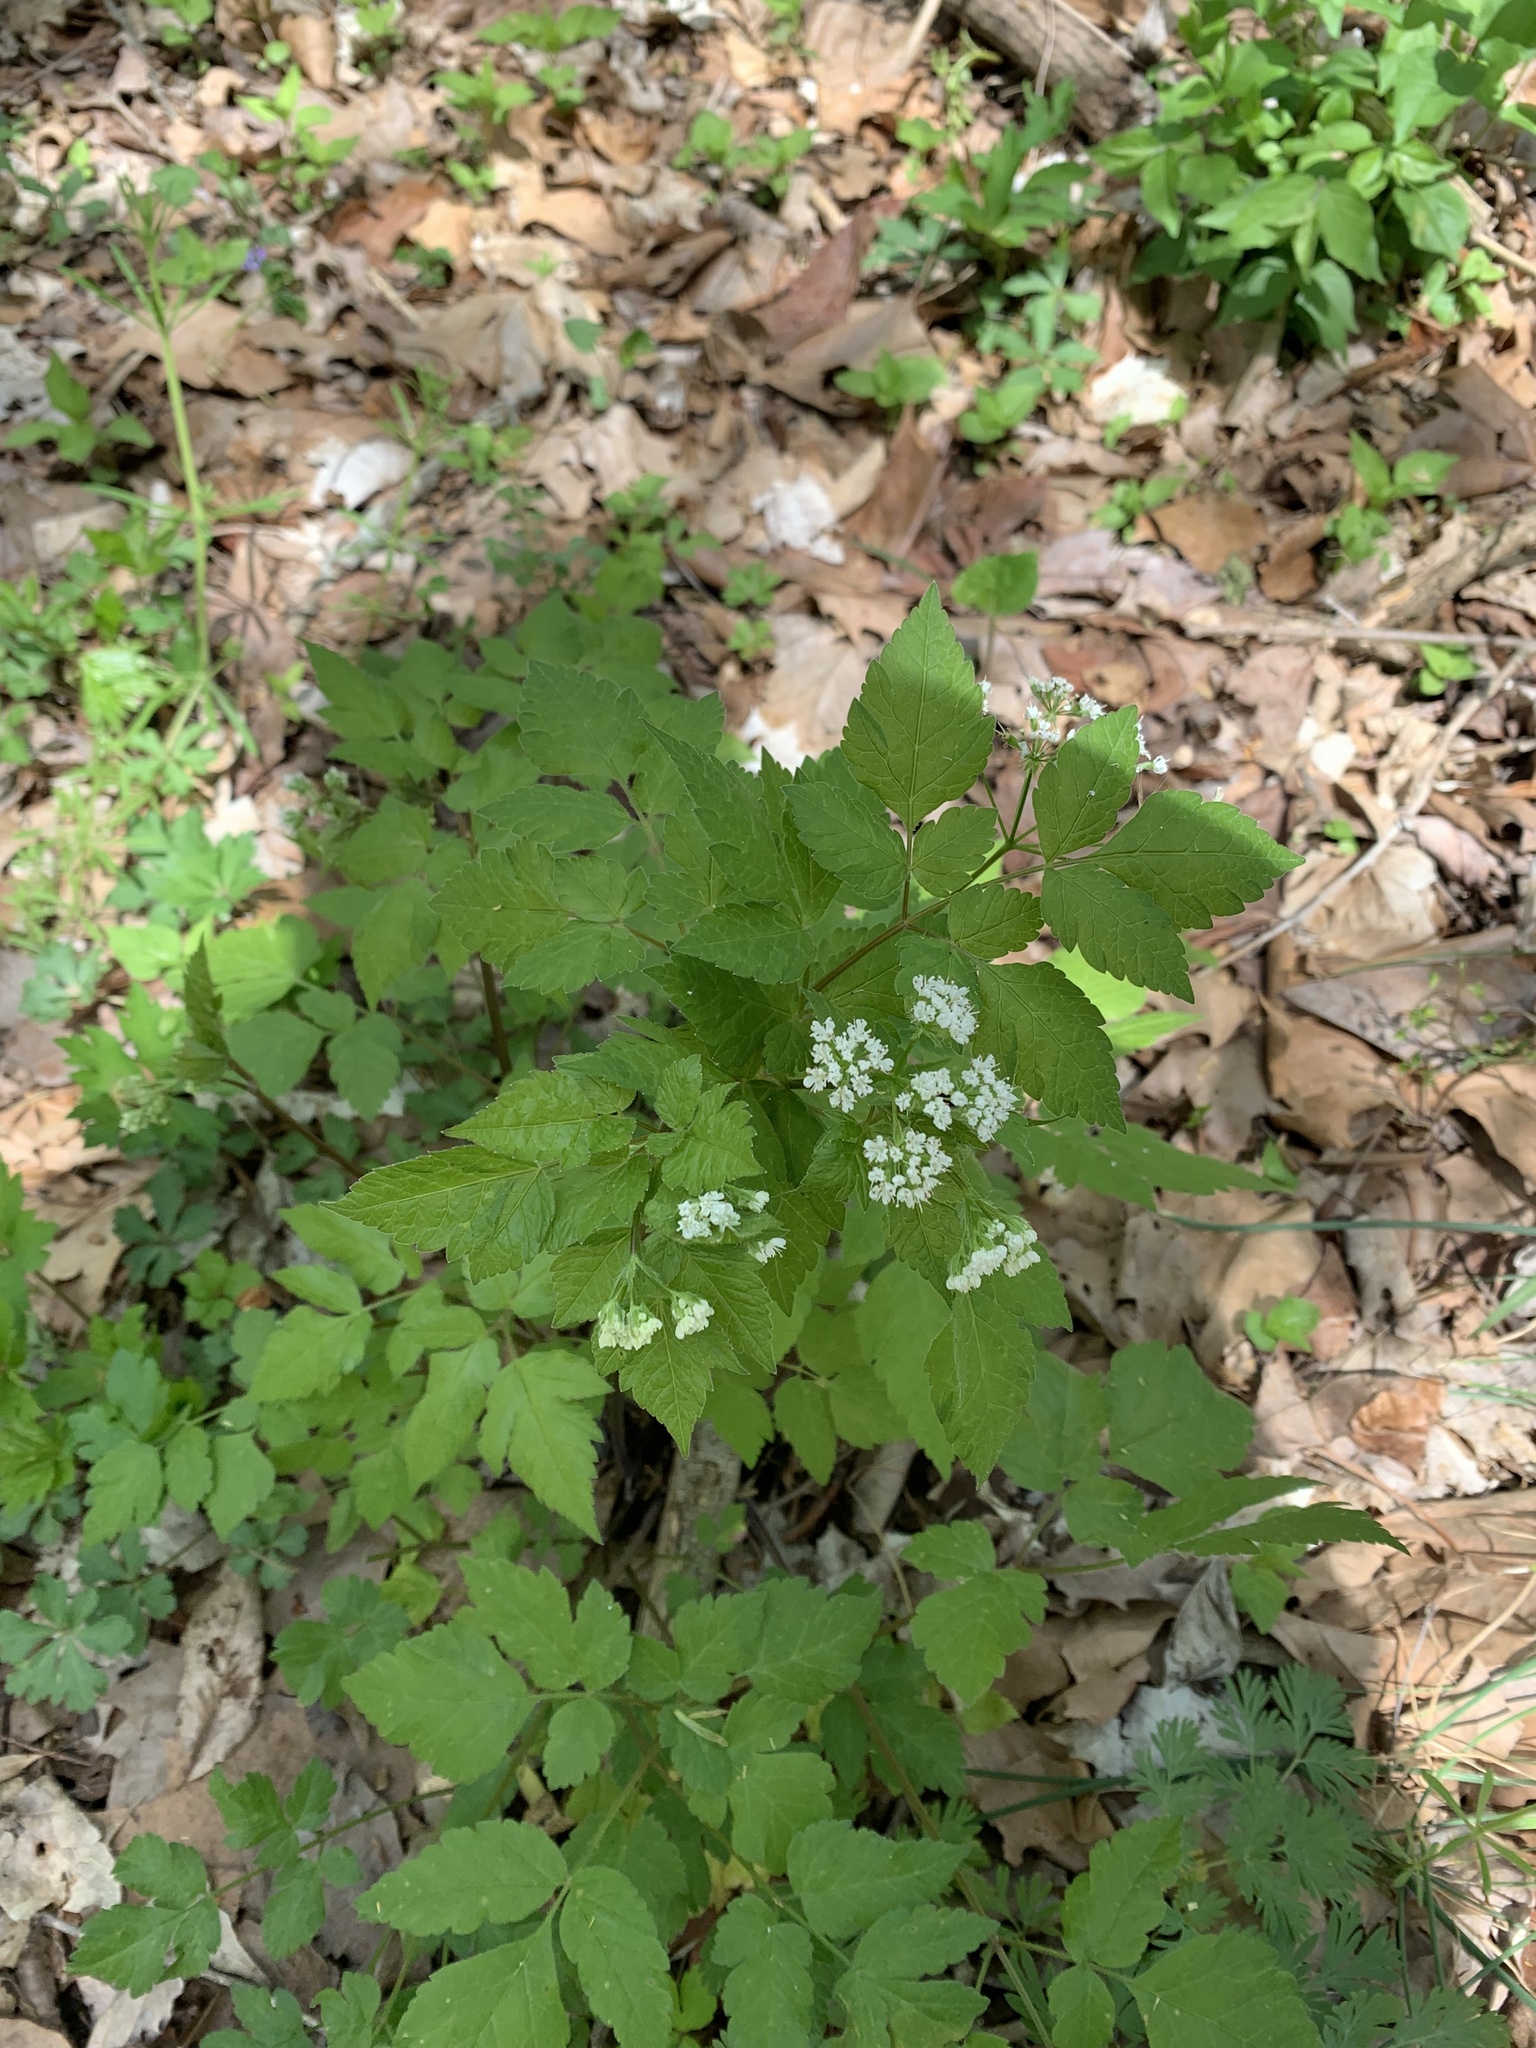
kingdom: Plantae
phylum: Tracheophyta
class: Magnoliopsida
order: Apiales
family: Apiaceae
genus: Osmorhiza
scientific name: Osmorhiza longistylis
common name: Smooth sweet cicely
